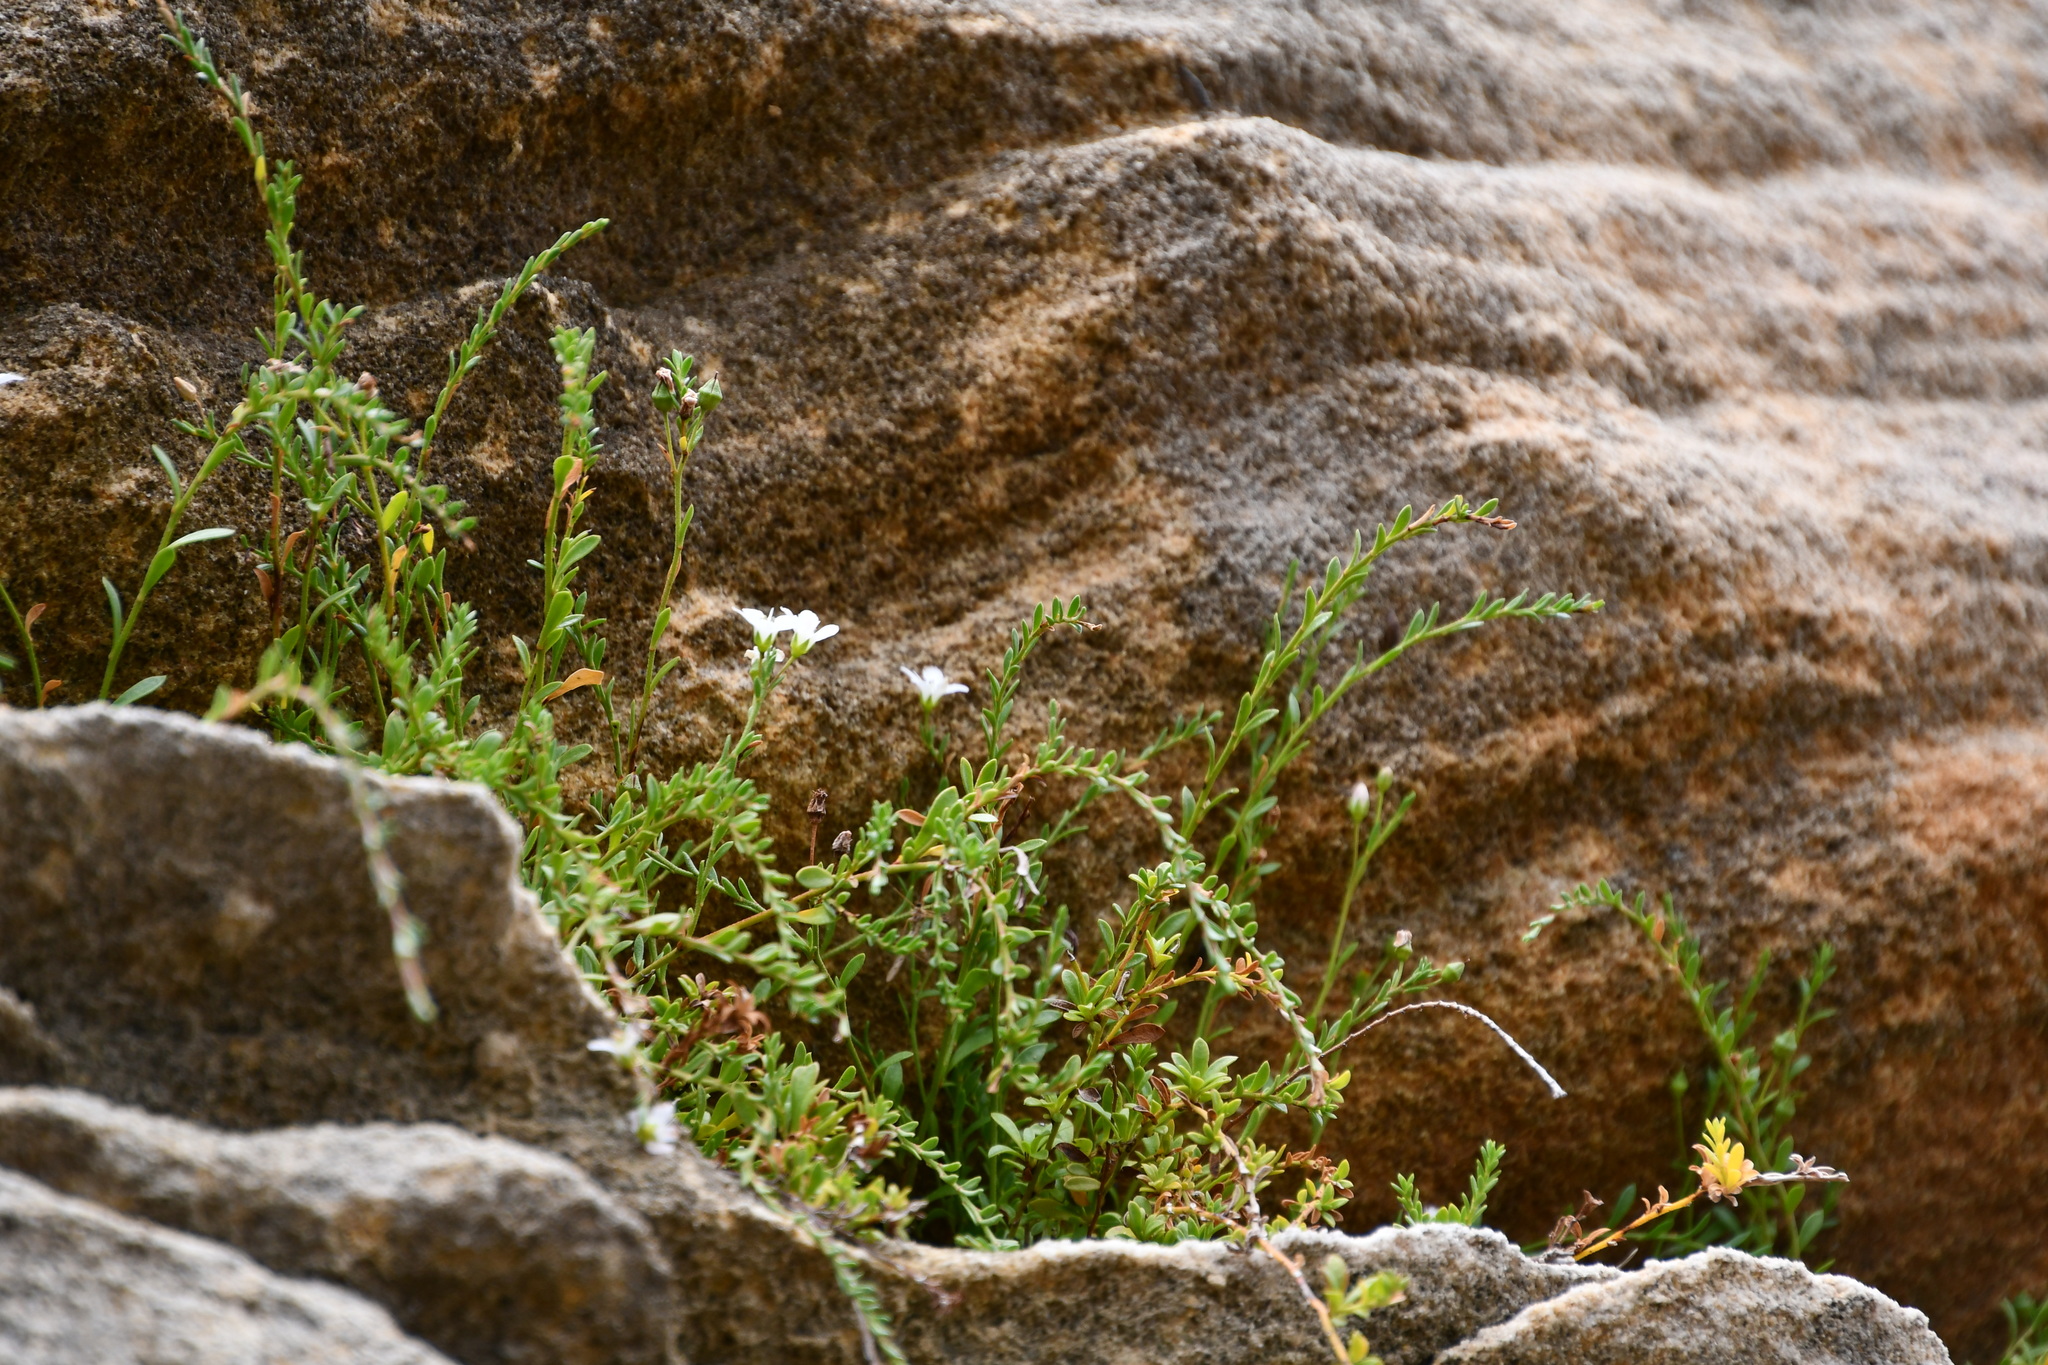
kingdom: Plantae
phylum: Tracheophyta
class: Magnoliopsida
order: Ericales
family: Primulaceae
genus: Samolus
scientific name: Samolus repens
